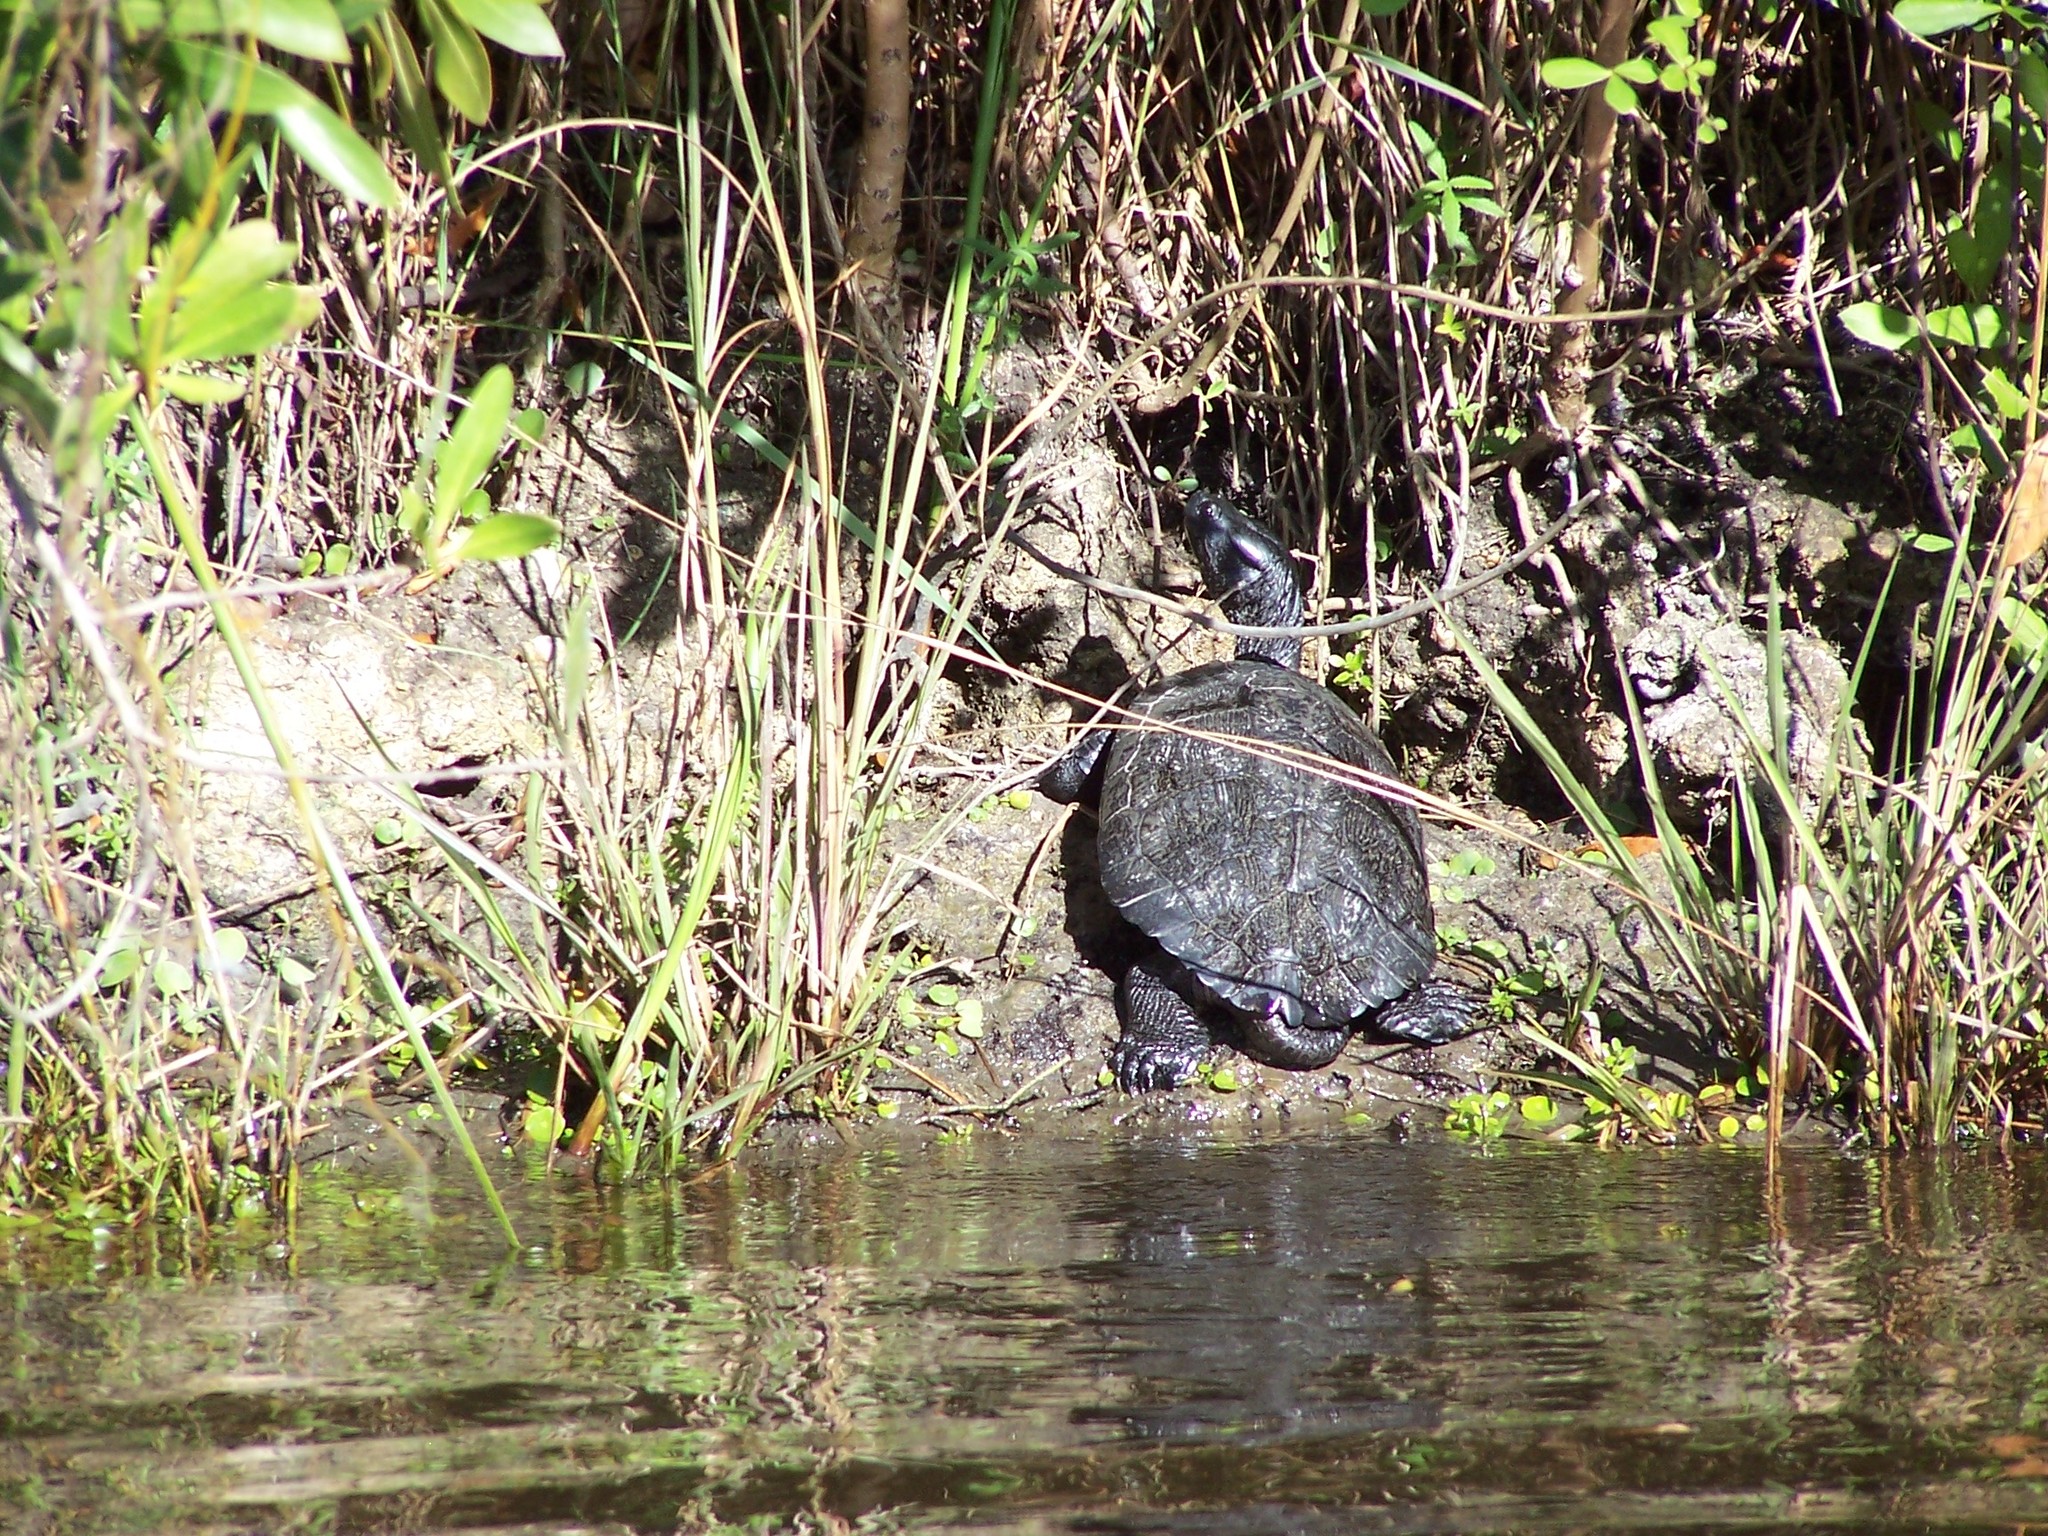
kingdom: Animalia
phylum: Chordata
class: Testudines
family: Emydidae
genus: Trachemys
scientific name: Trachemys decussata
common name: North antillean slider
